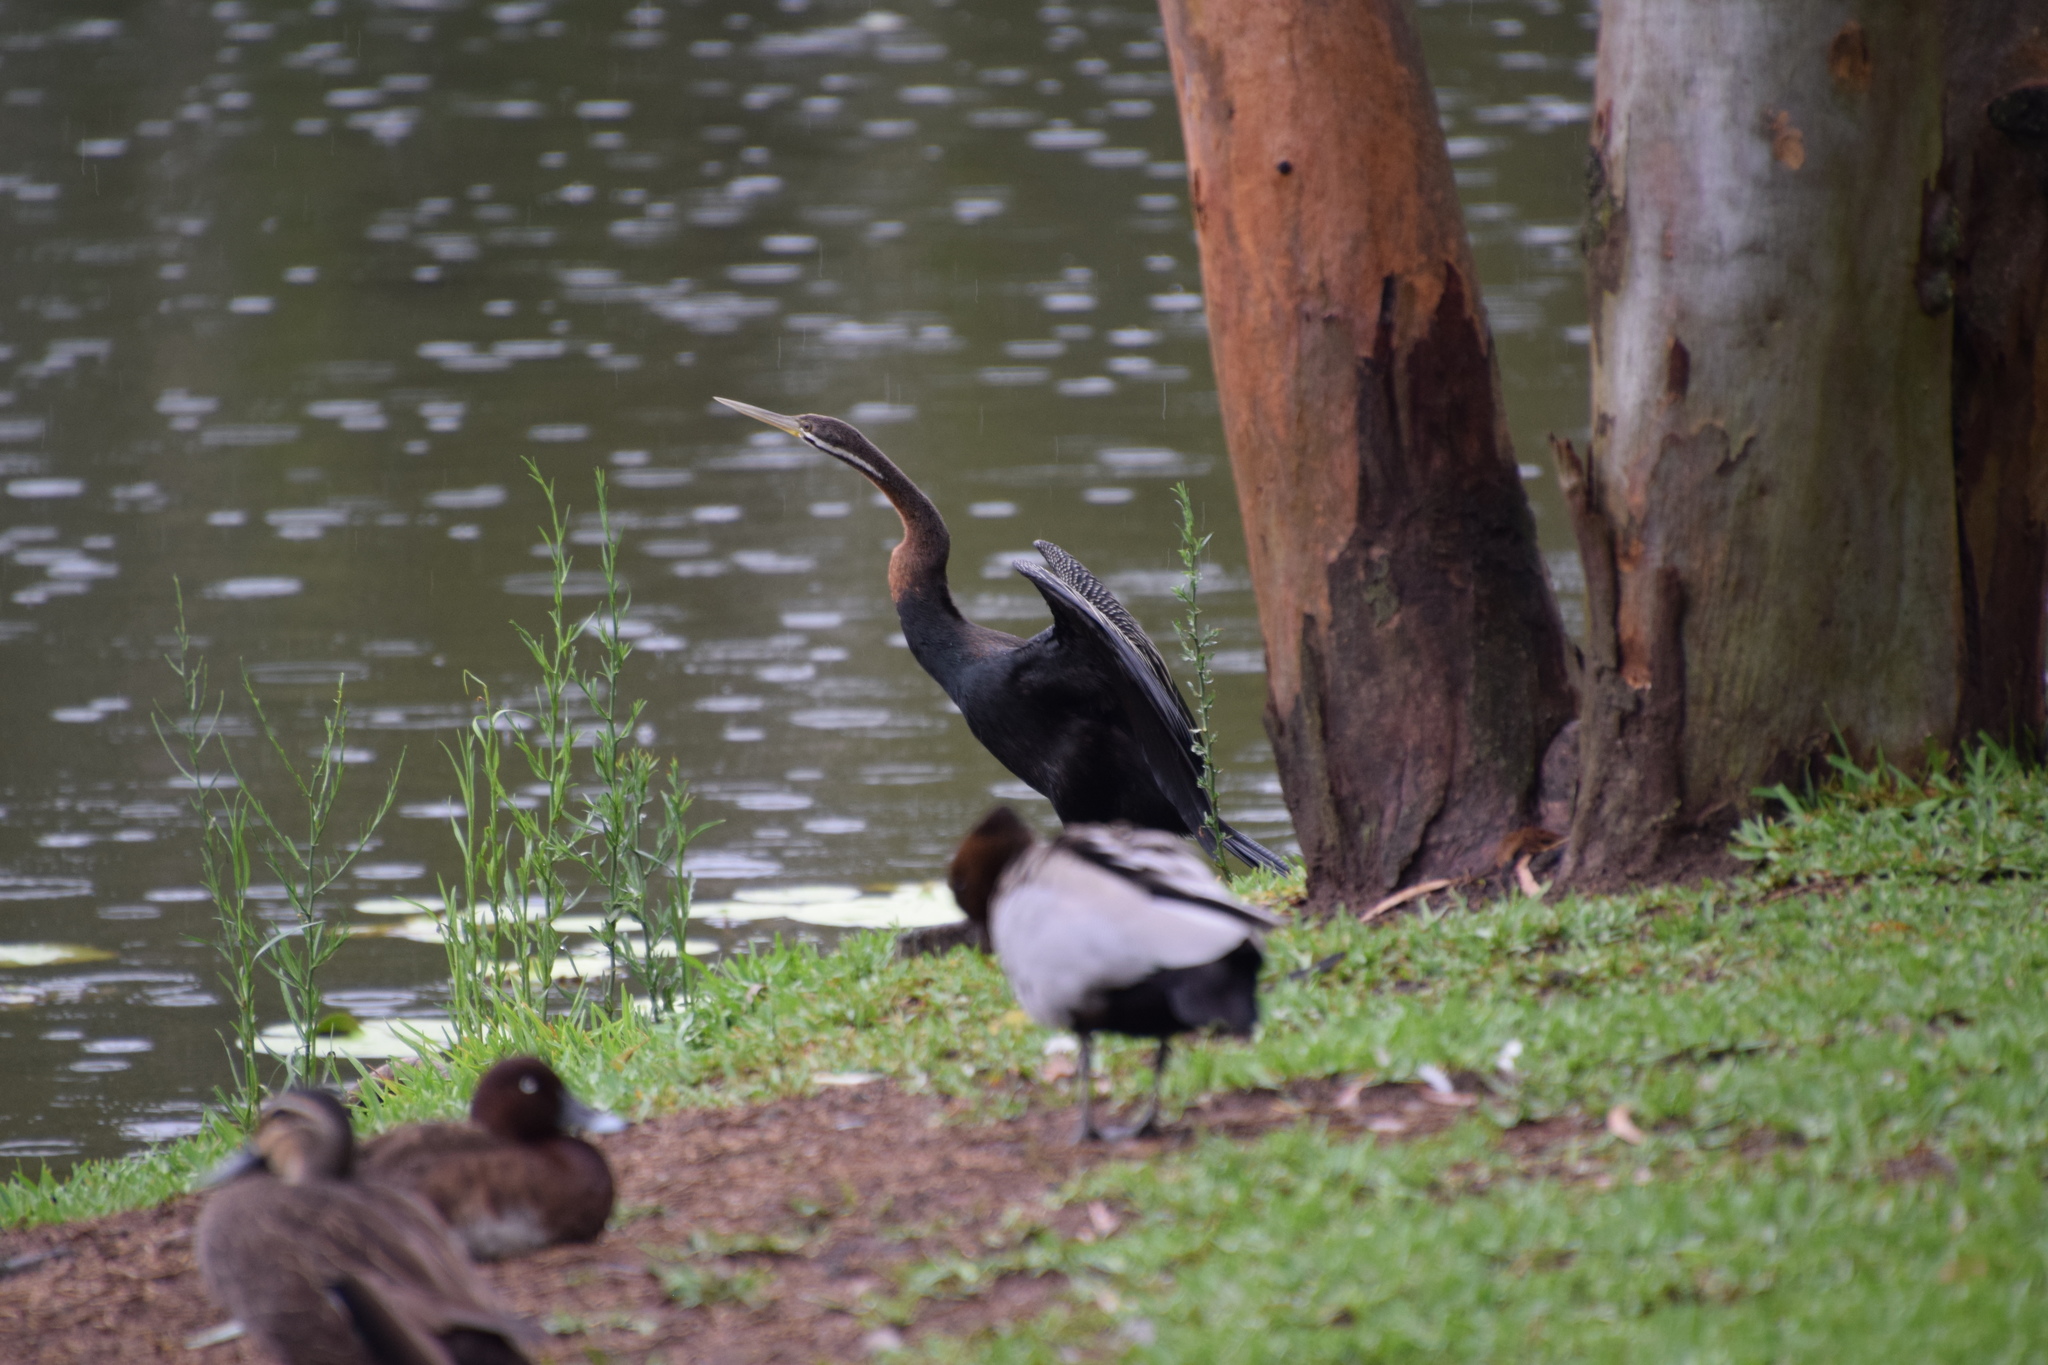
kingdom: Animalia
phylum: Chordata
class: Aves
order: Suliformes
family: Anhingidae
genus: Anhinga
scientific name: Anhinga novaehollandiae
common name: Australasian darter
